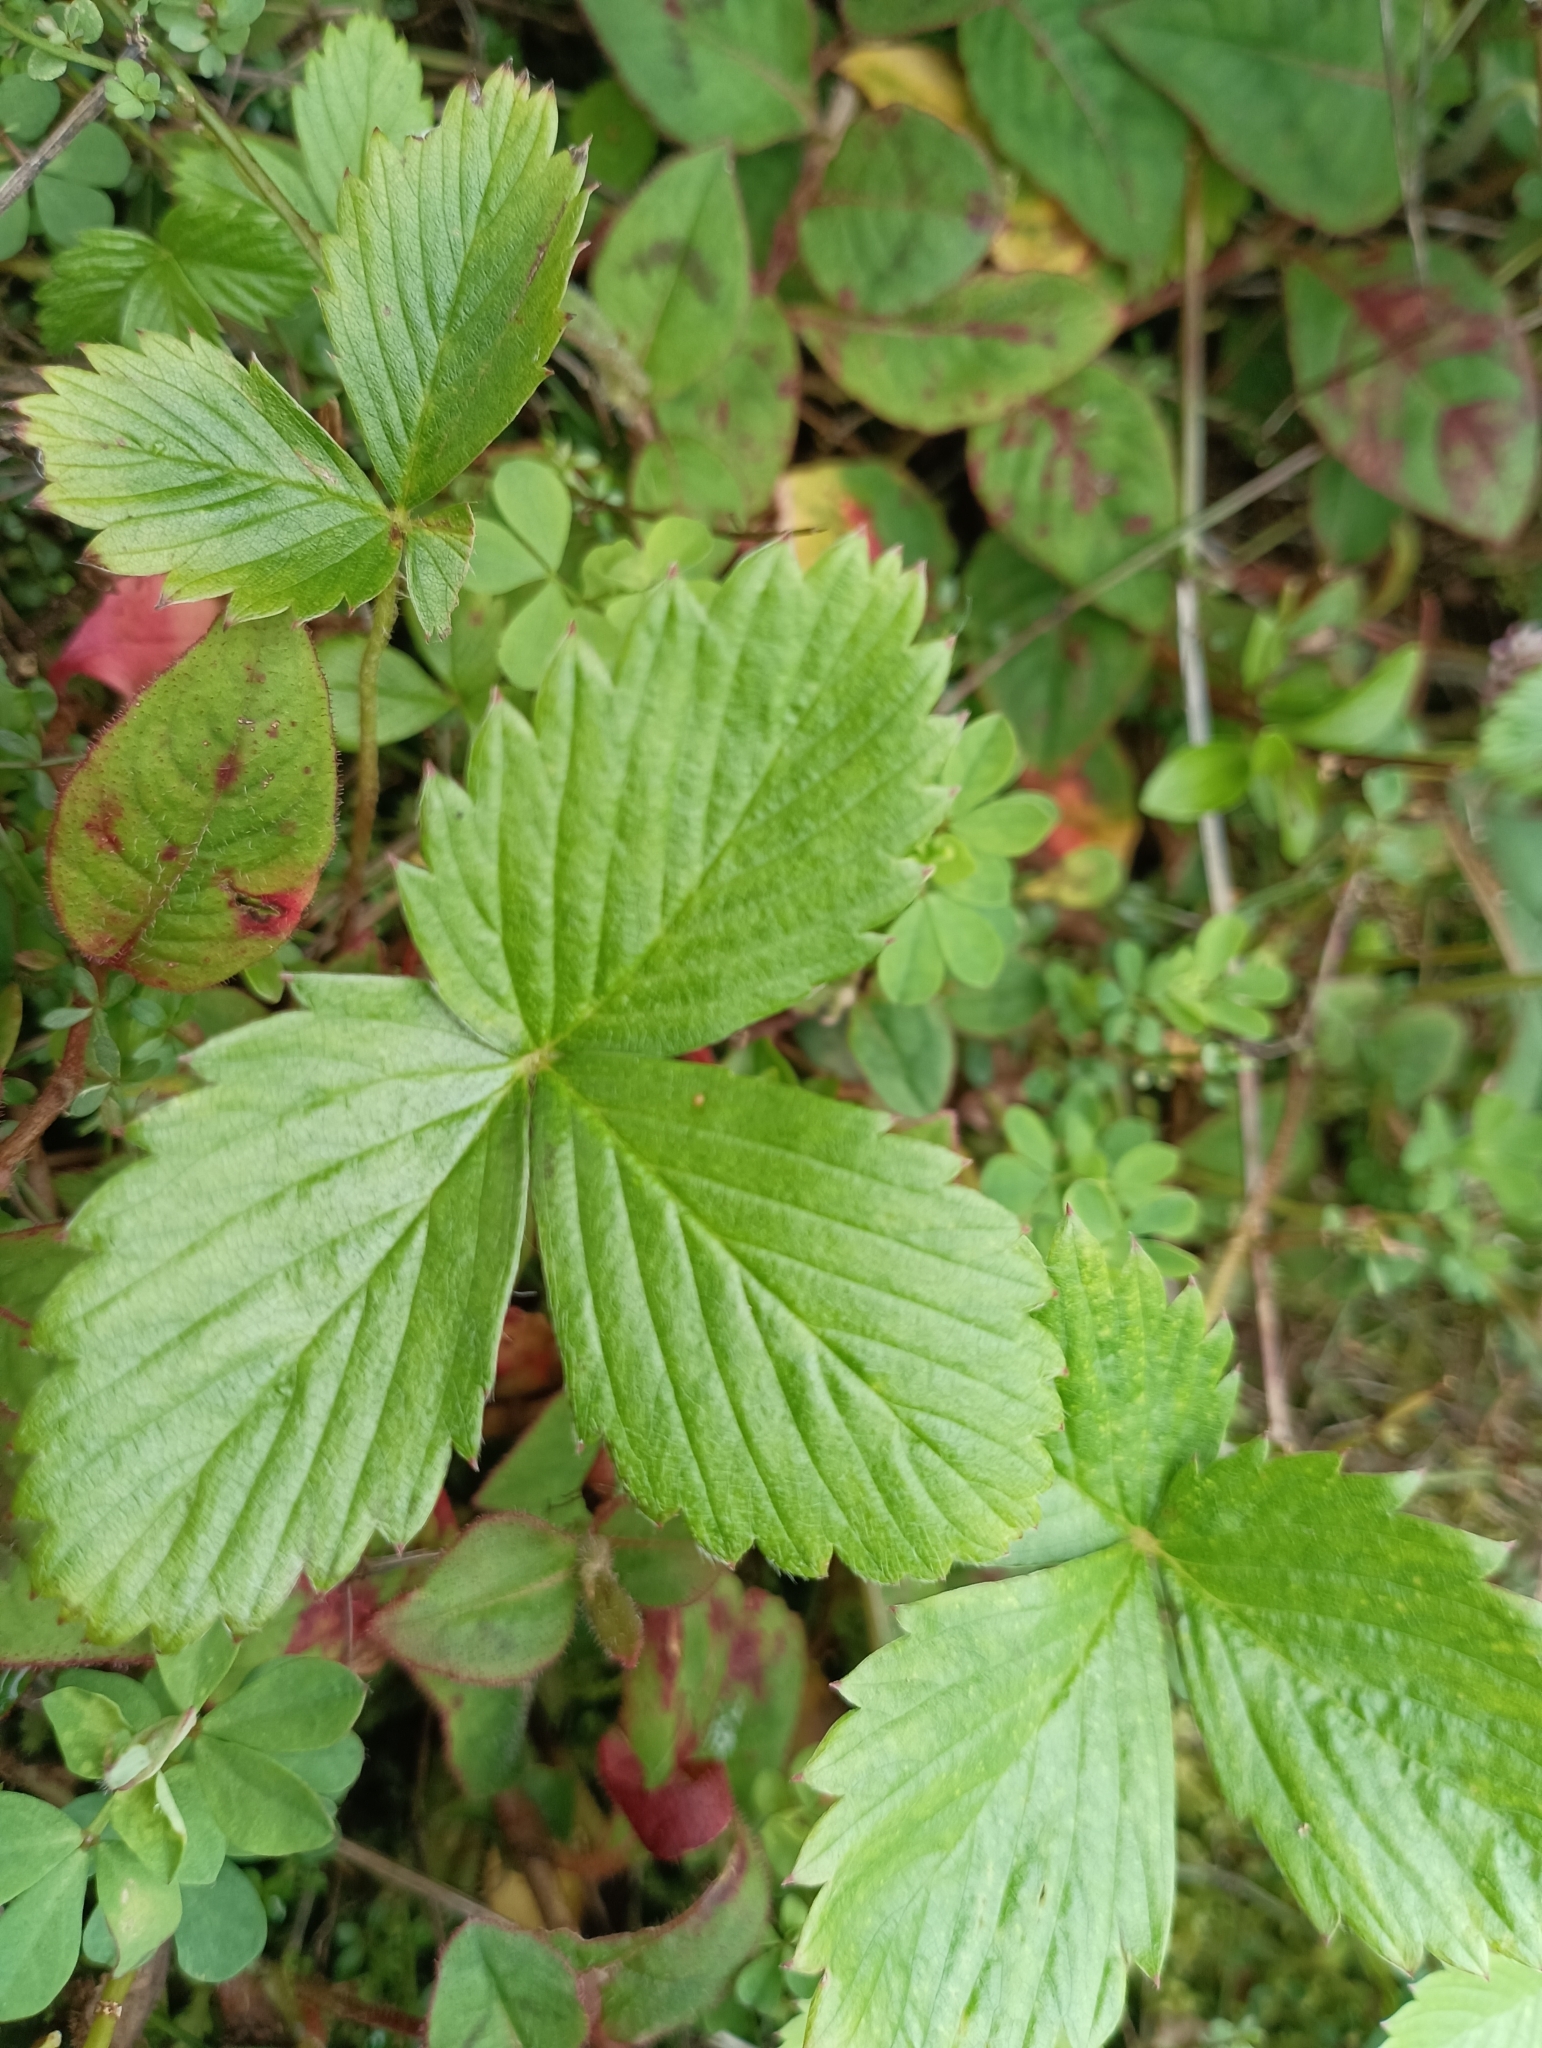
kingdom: Plantae
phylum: Tracheophyta
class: Magnoliopsida
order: Rosales
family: Rosaceae
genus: Fragaria
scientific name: Fragaria vesca
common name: Wild strawberry
